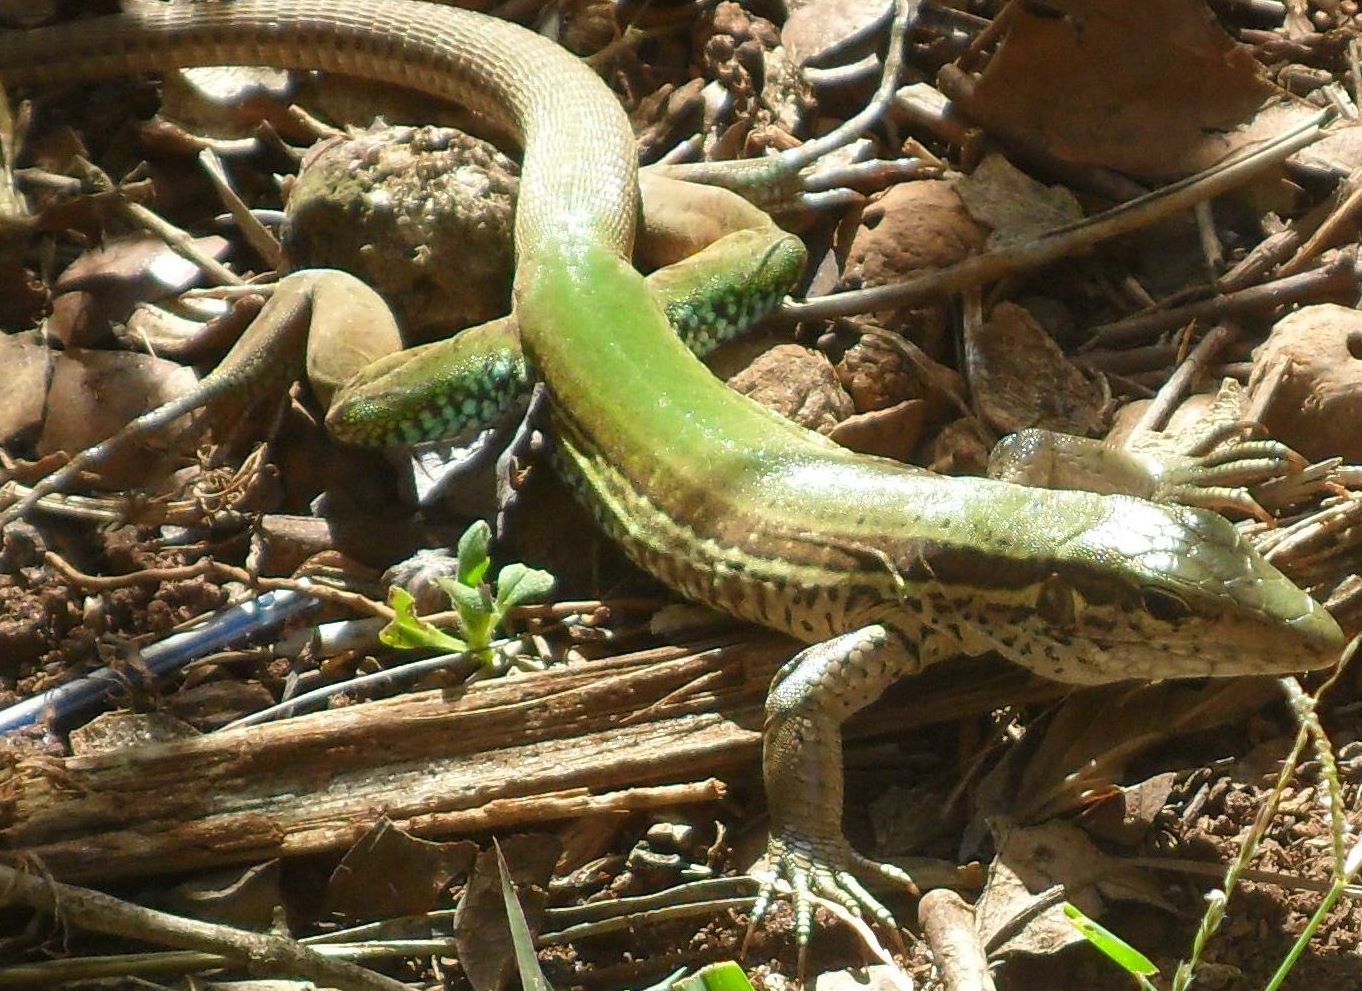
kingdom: Animalia
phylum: Chordata
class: Squamata
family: Teiidae
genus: Ameiva
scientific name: Ameiva ameiva
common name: Giant ameiva
